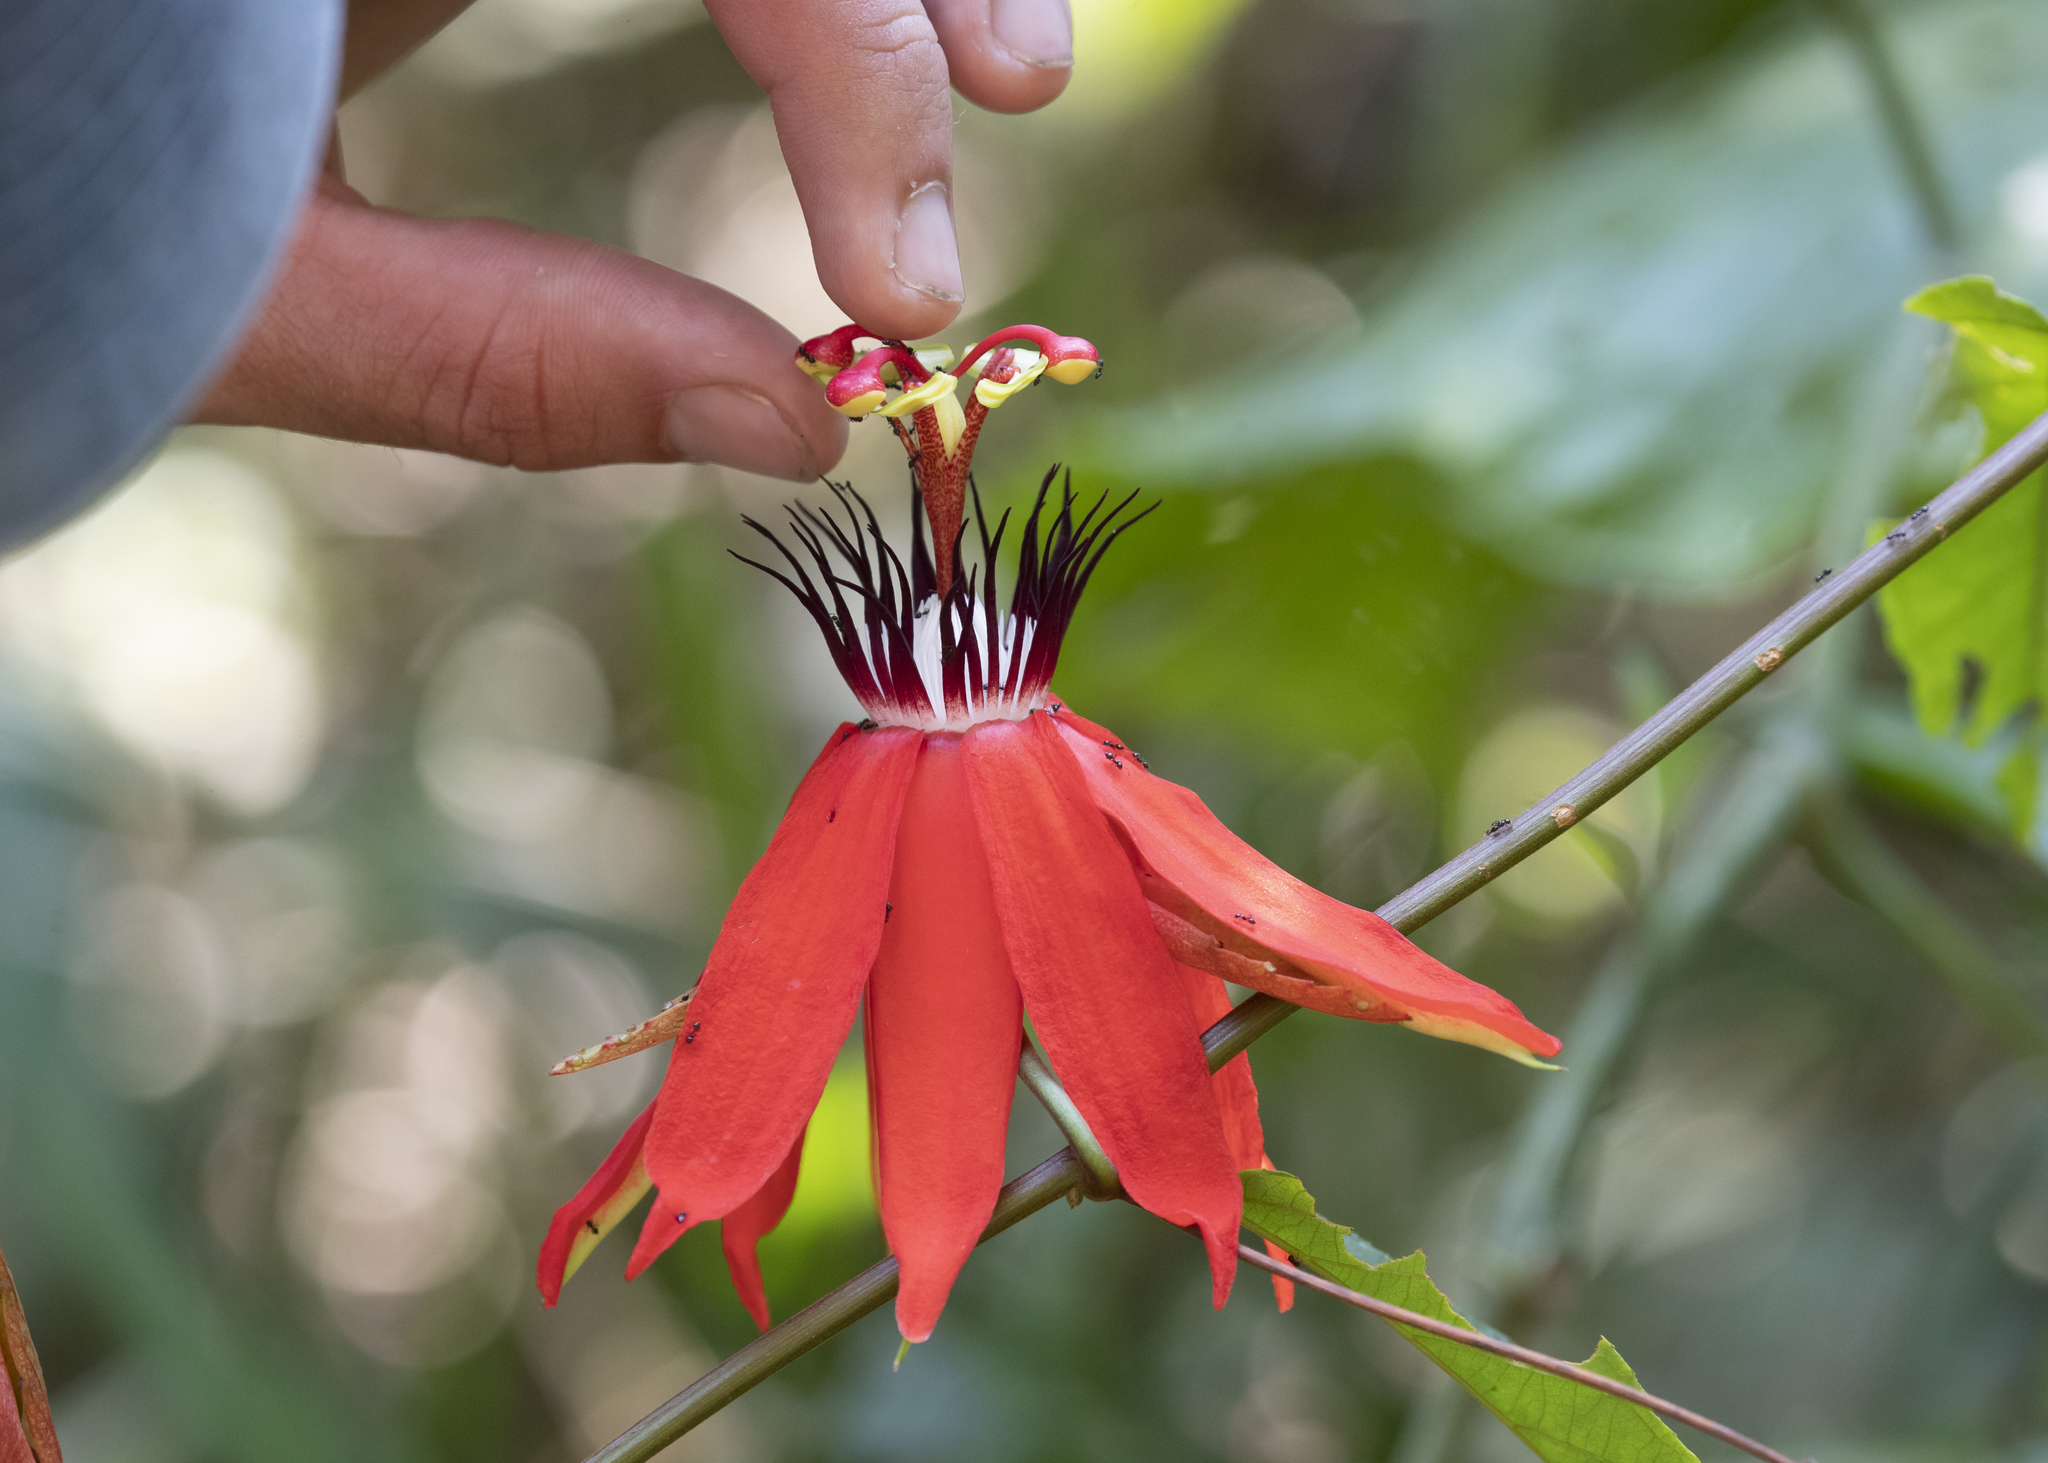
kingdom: Plantae
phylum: Tracheophyta
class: Magnoliopsida
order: Malpighiales
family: Passifloraceae
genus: Passiflora
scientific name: Passiflora miniata
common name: Red granadilla
